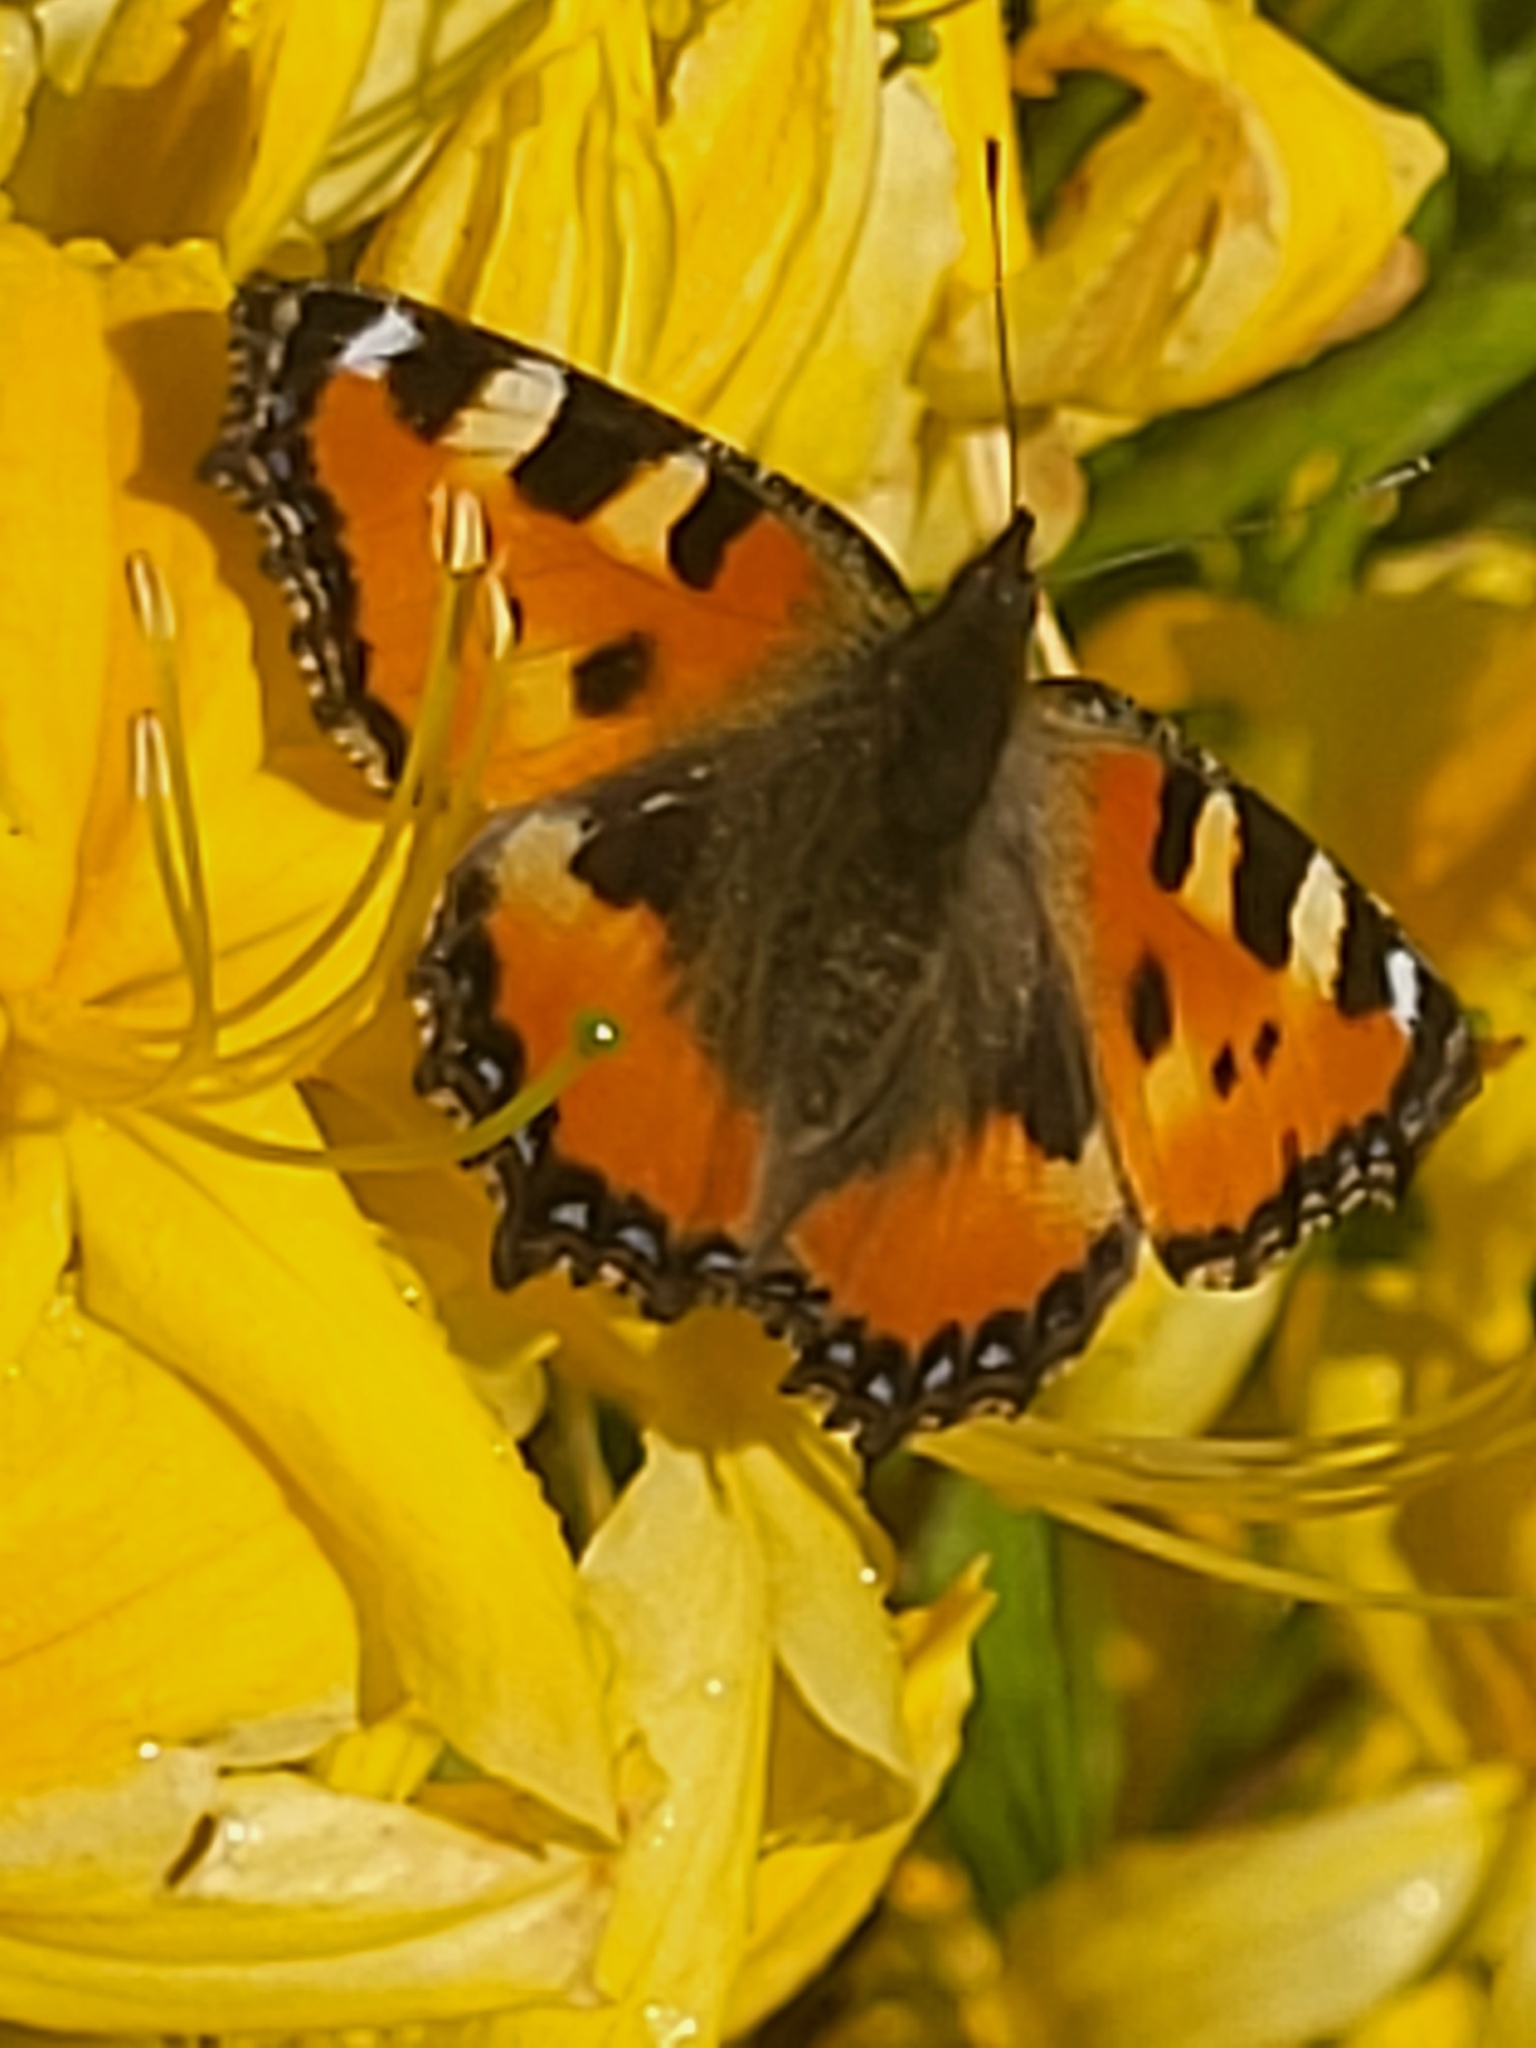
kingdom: Animalia
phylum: Arthropoda
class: Insecta
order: Lepidoptera
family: Nymphalidae
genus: Aglais
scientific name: Aglais urticae
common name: Small tortoiseshell
